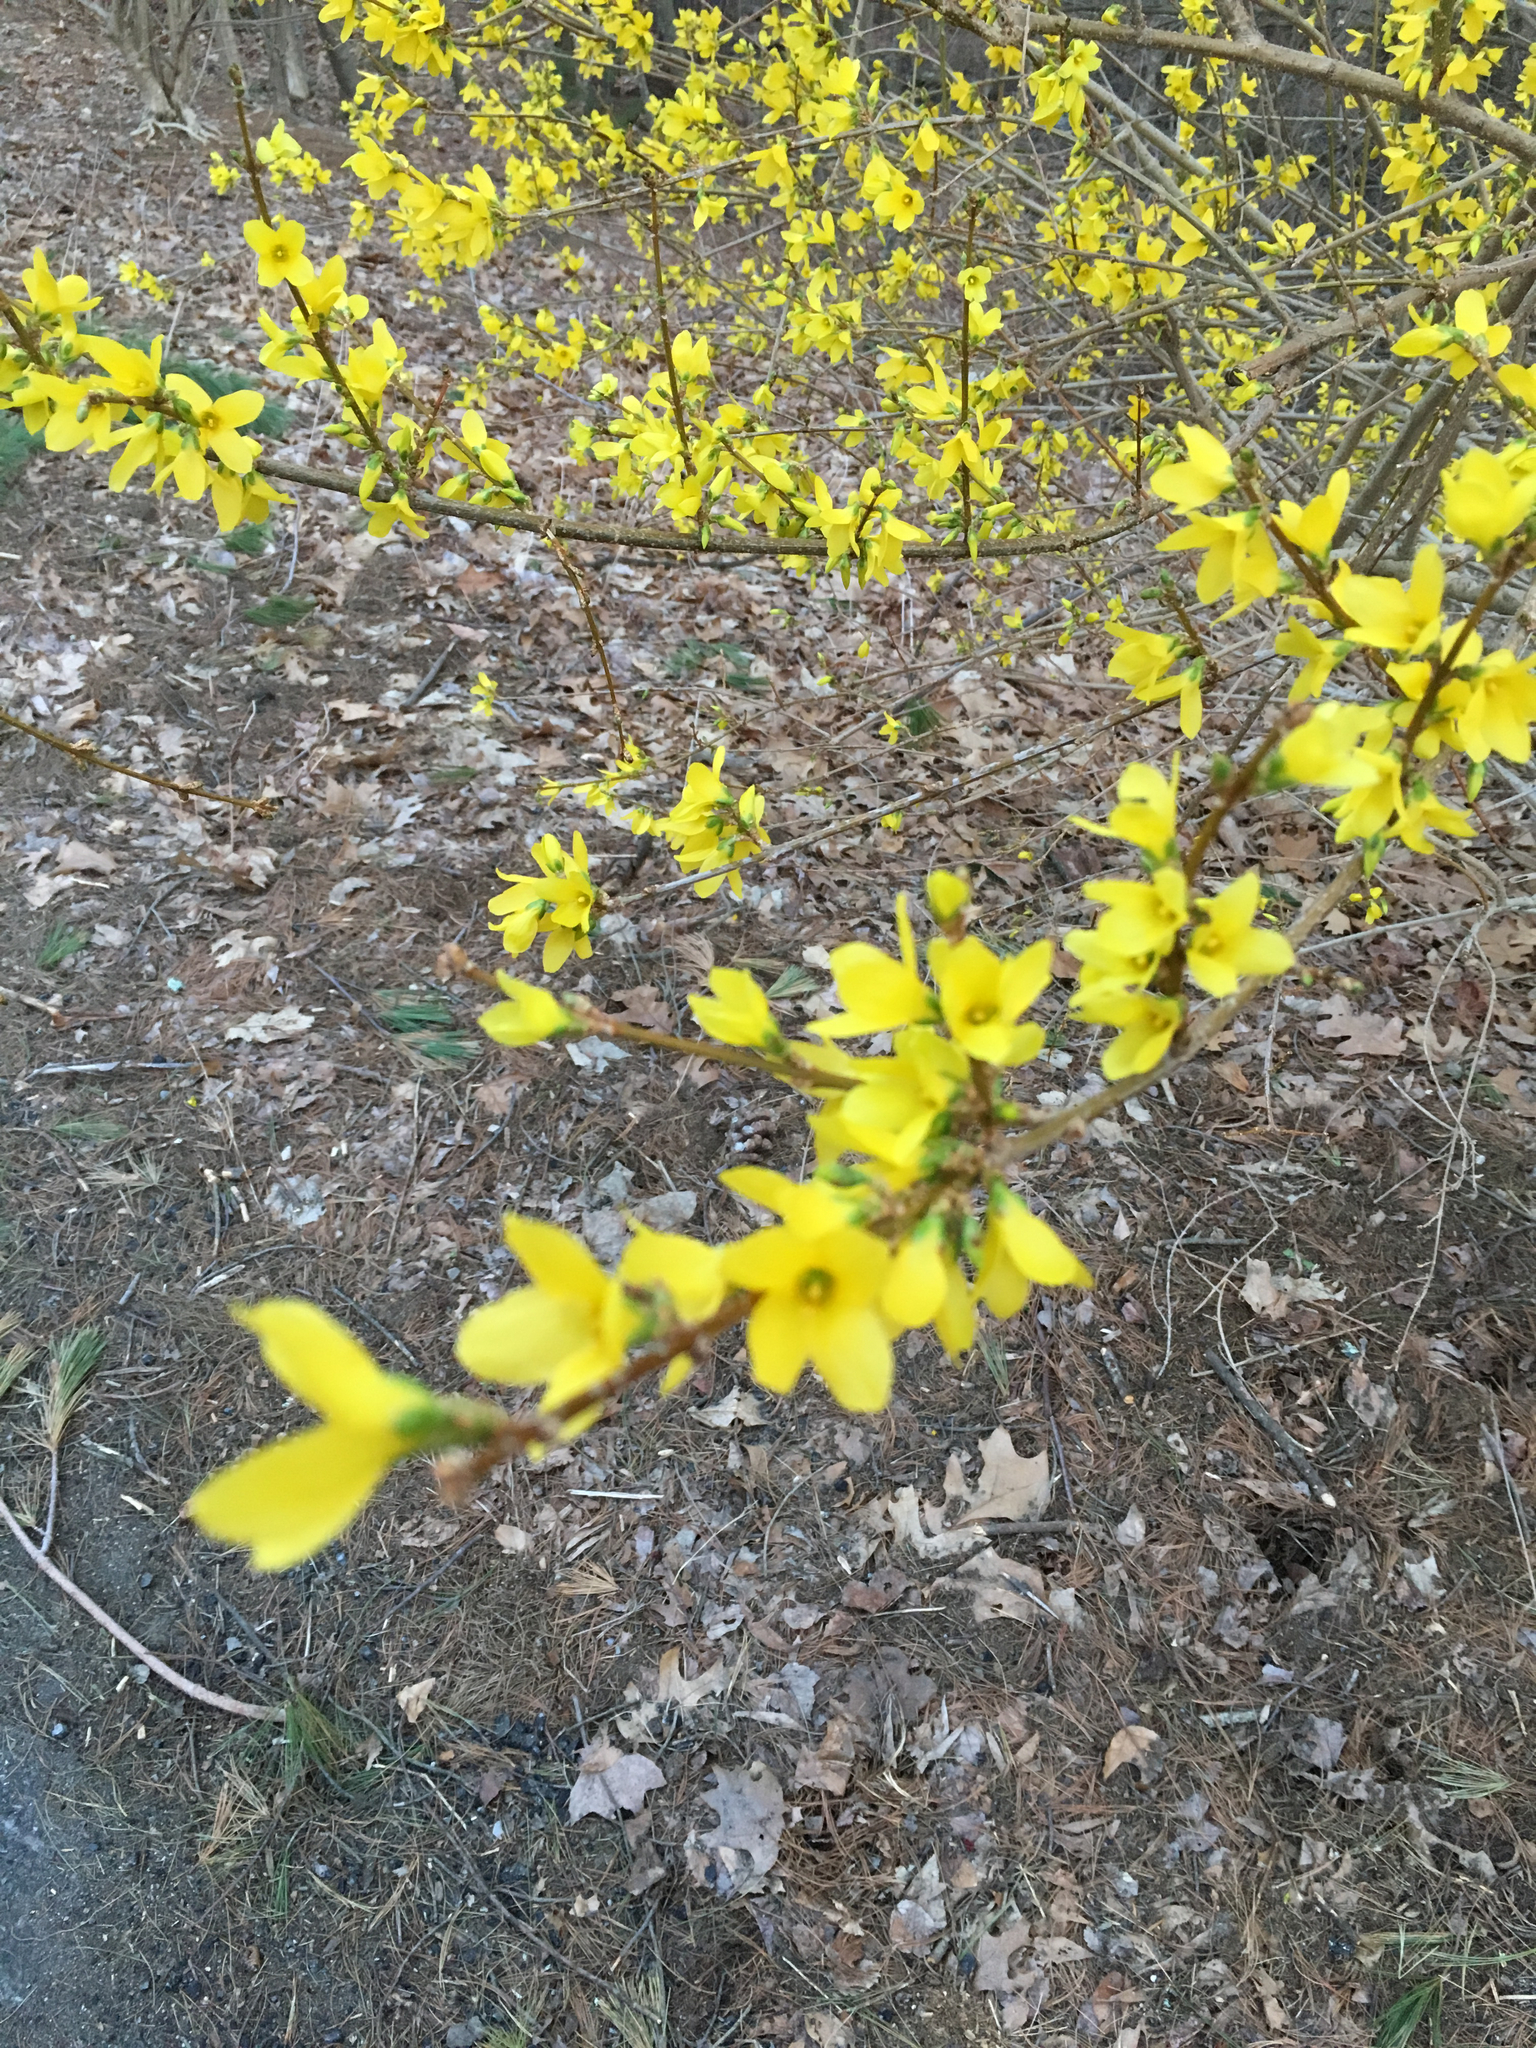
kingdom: Plantae
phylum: Tracheophyta
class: Magnoliopsida
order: Lamiales
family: Oleaceae
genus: Forsythia
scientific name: Forsythia
